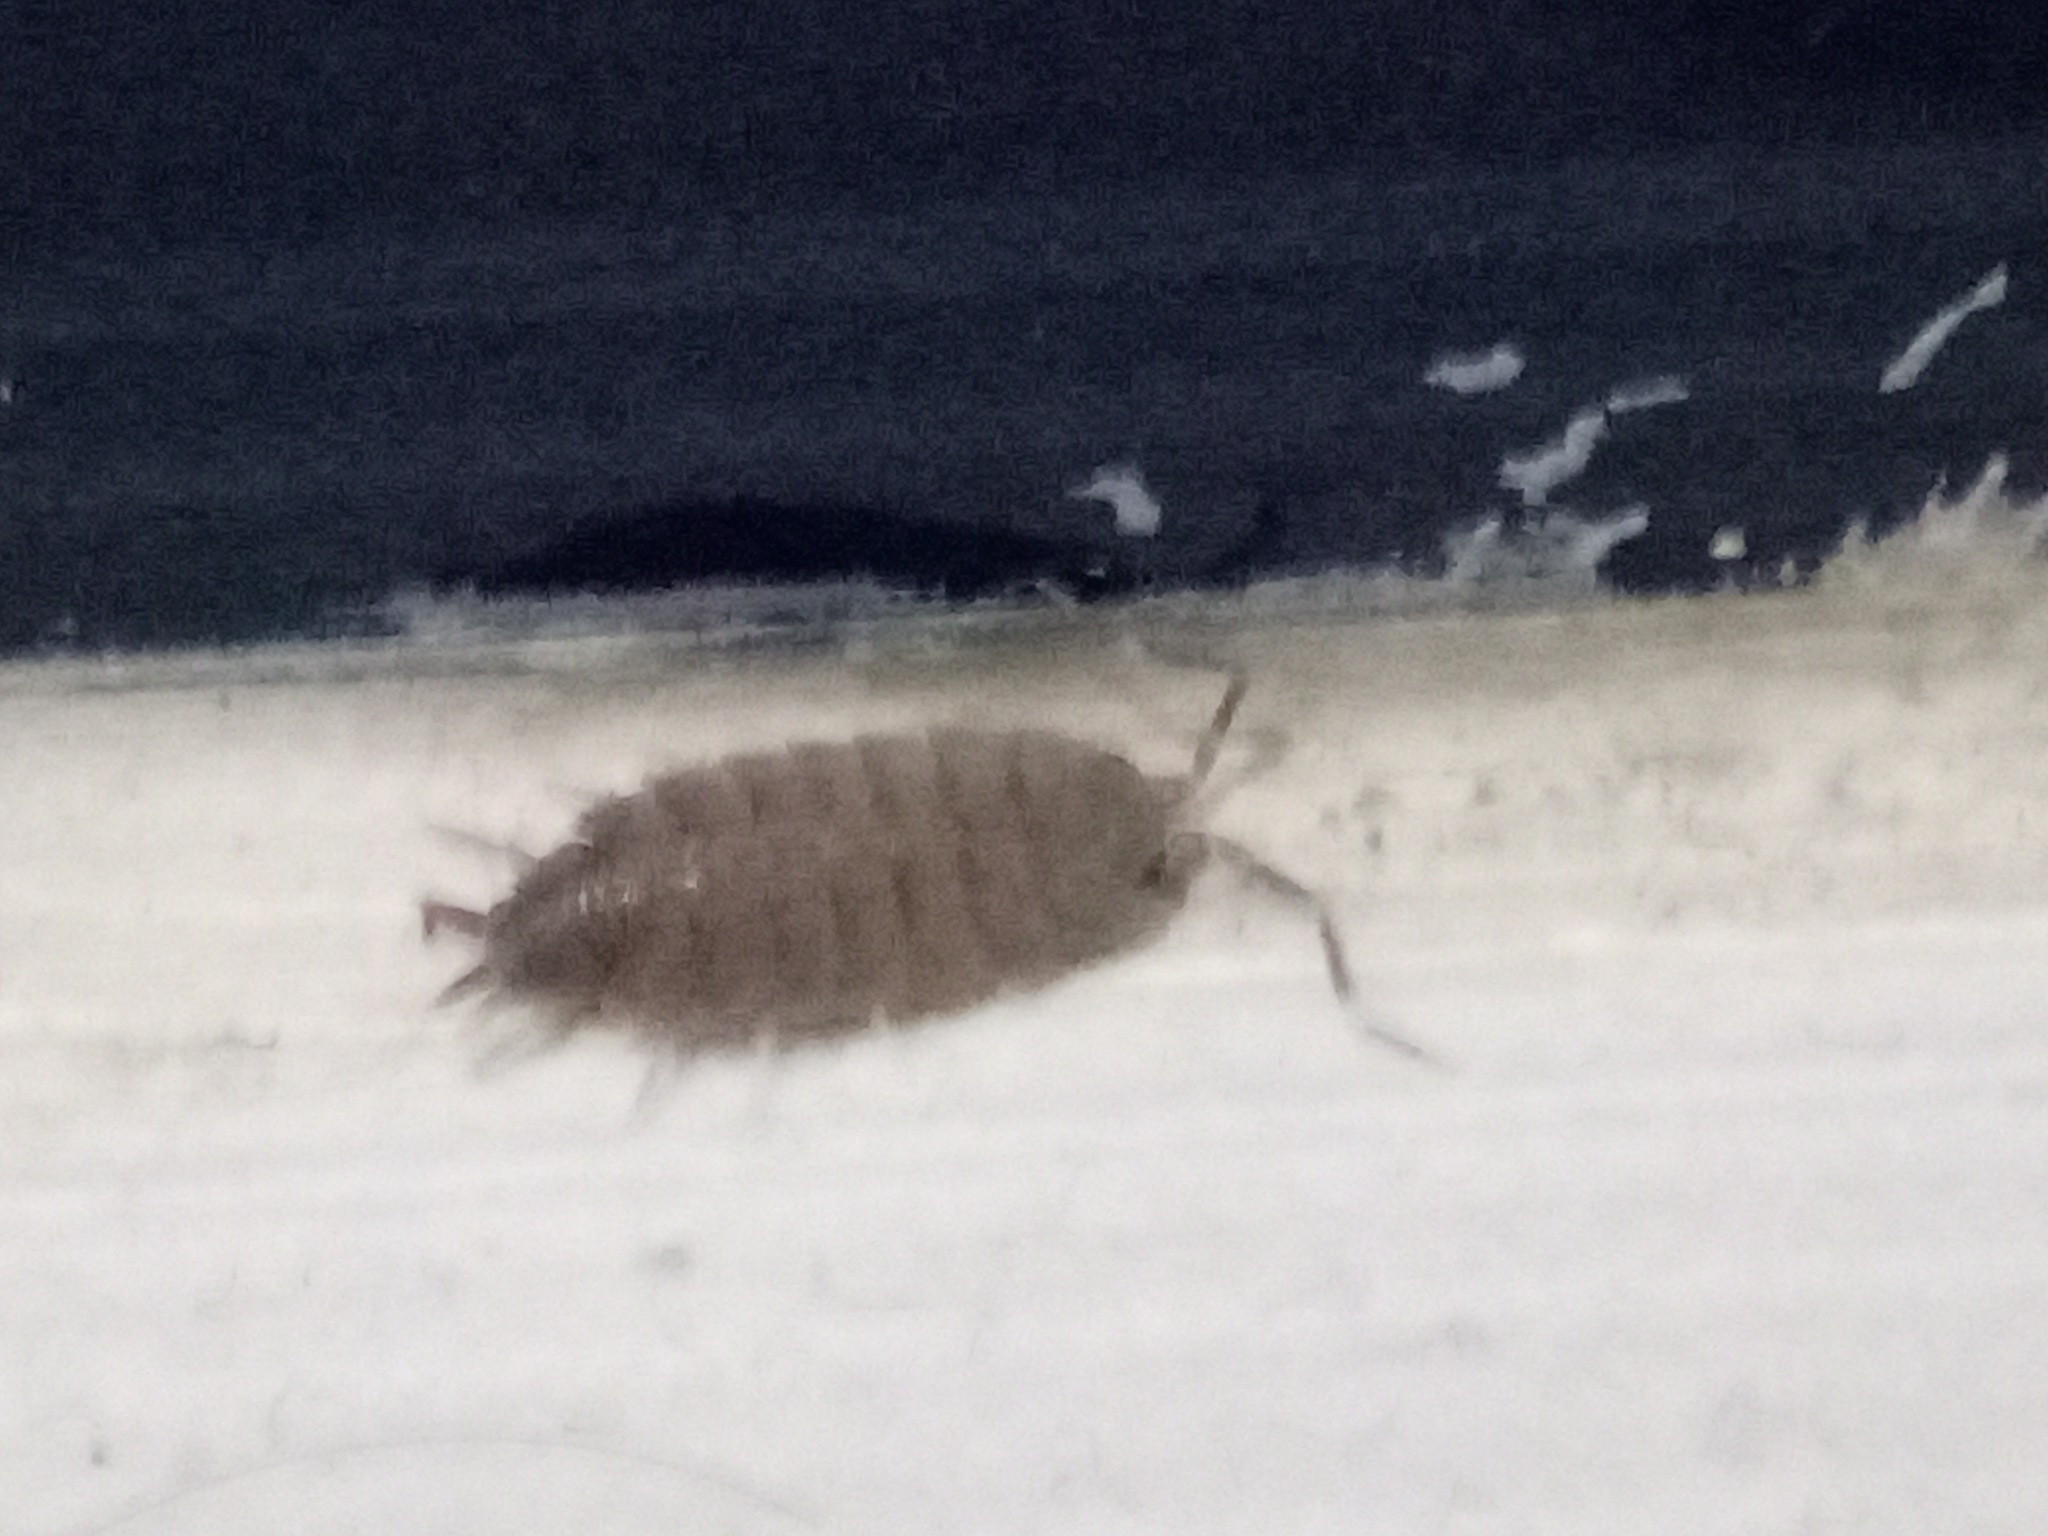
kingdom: Animalia
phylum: Arthropoda
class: Malacostraca
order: Isopoda
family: Porcellionidae
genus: Porcellionides
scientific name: Porcellionides pruinosus
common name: Plum woodlouse
